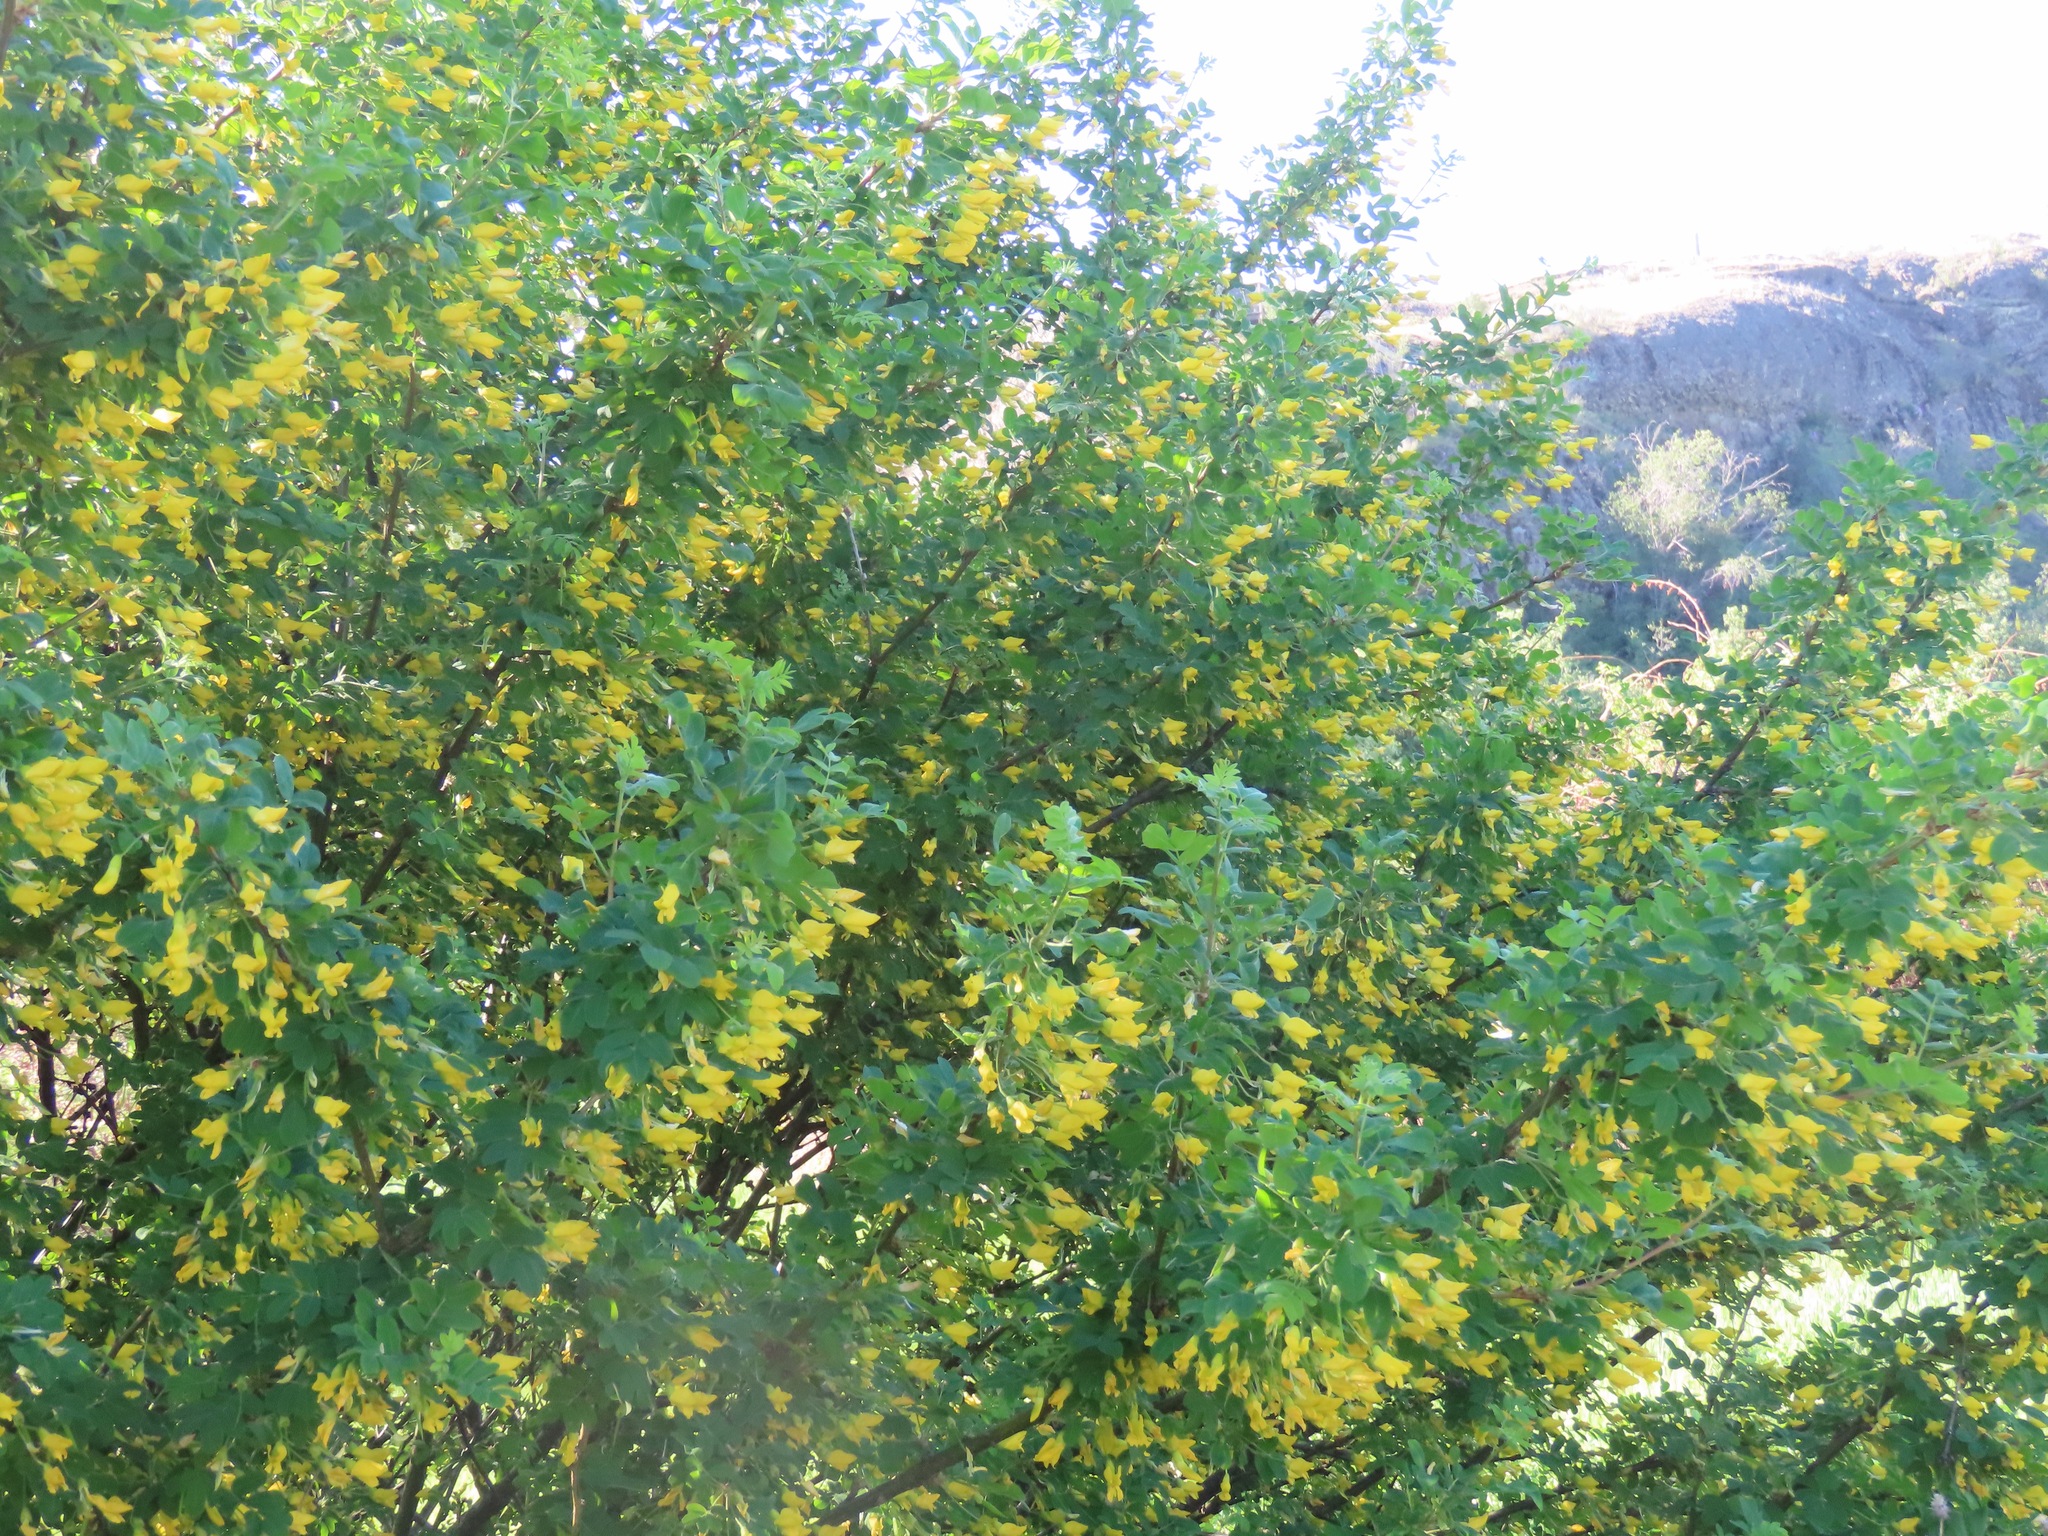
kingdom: Plantae
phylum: Tracheophyta
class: Magnoliopsida
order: Fabales
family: Fabaceae
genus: Caragana
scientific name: Caragana arborescens
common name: Siberian peashrub
